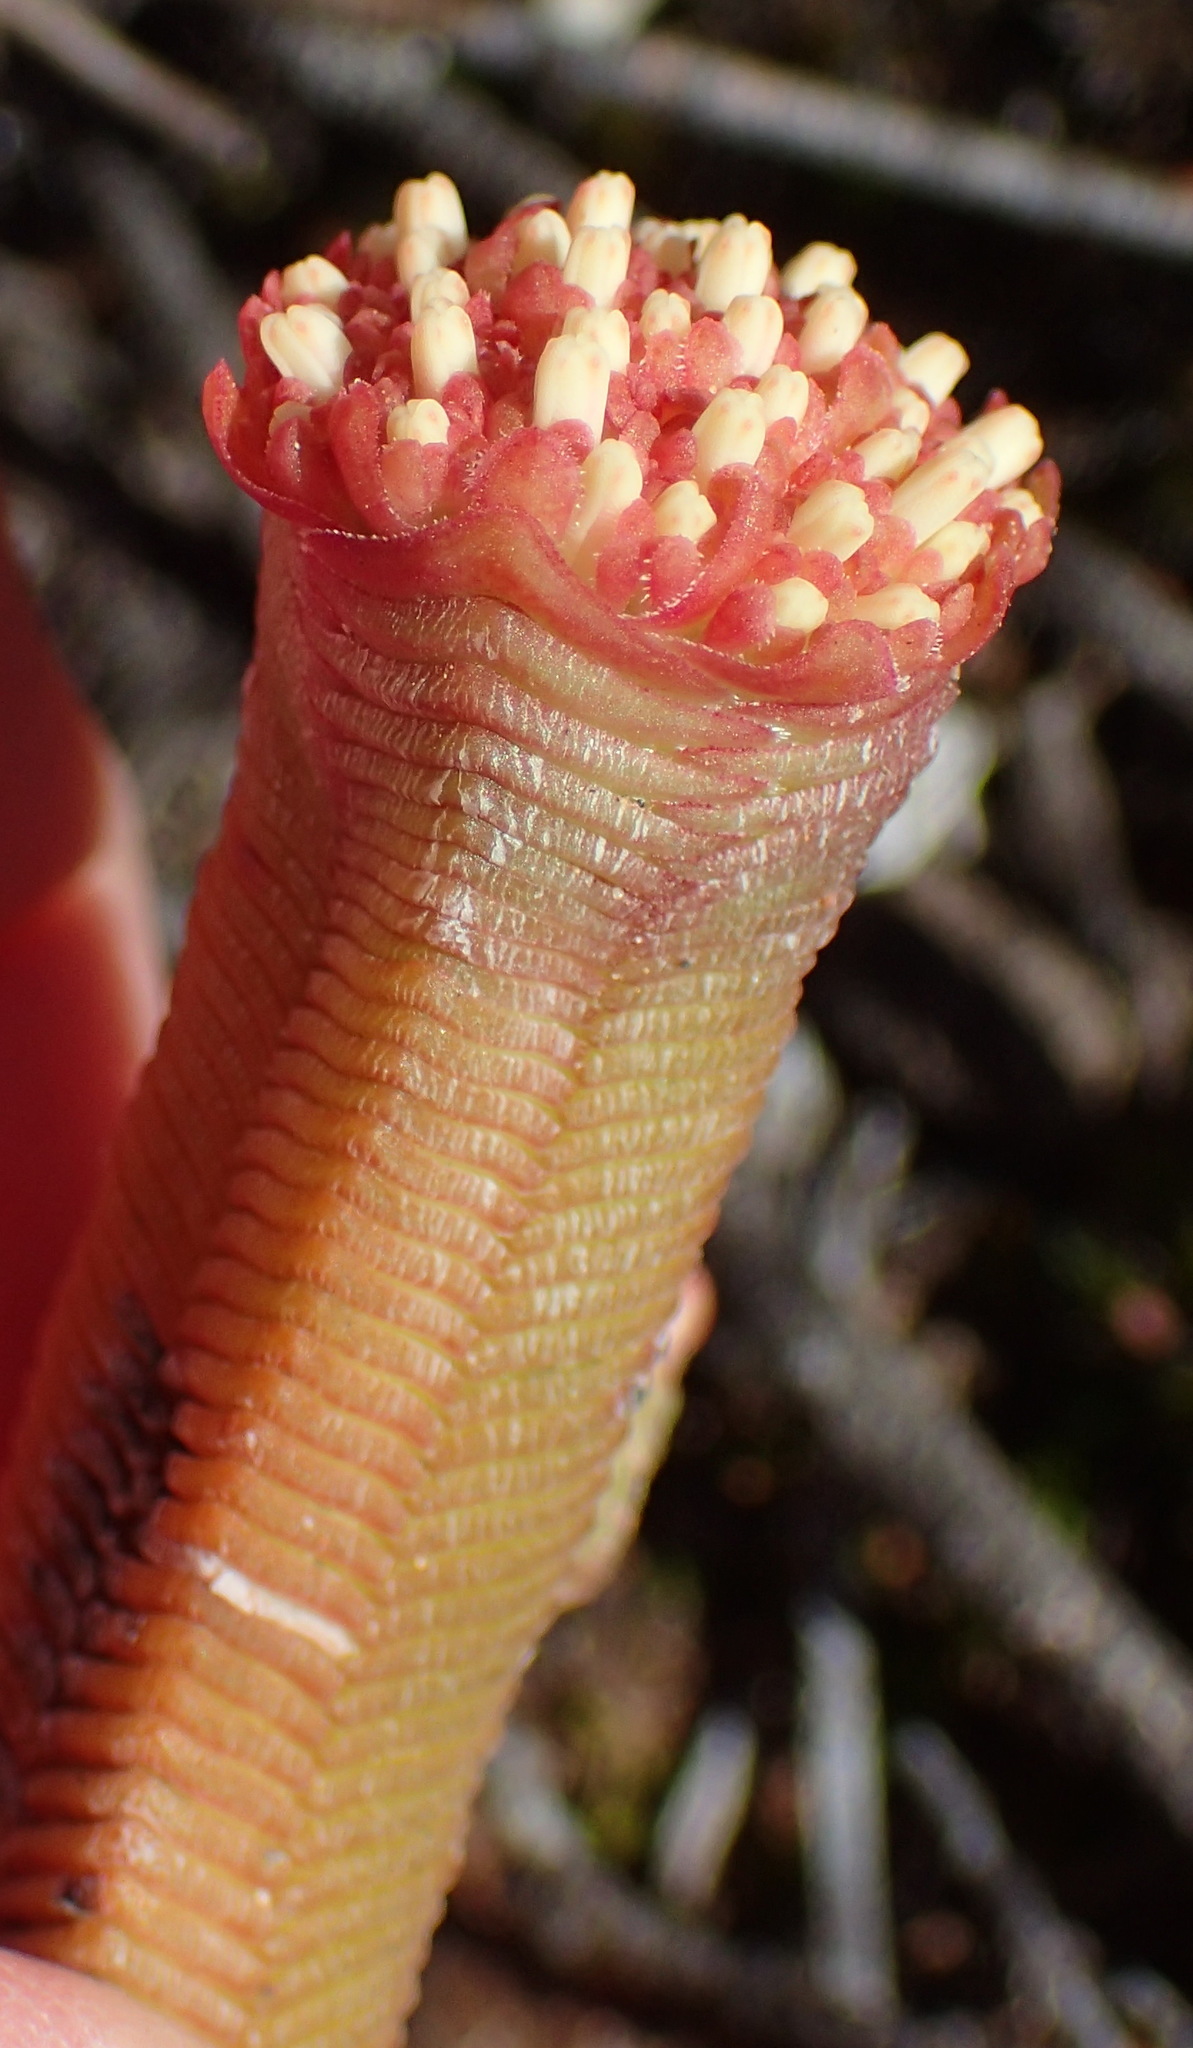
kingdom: Plantae
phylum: Tracheophyta
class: Magnoliopsida
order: Saxifragales
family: Crassulaceae
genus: Crassula
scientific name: Crassula pyramidalis
